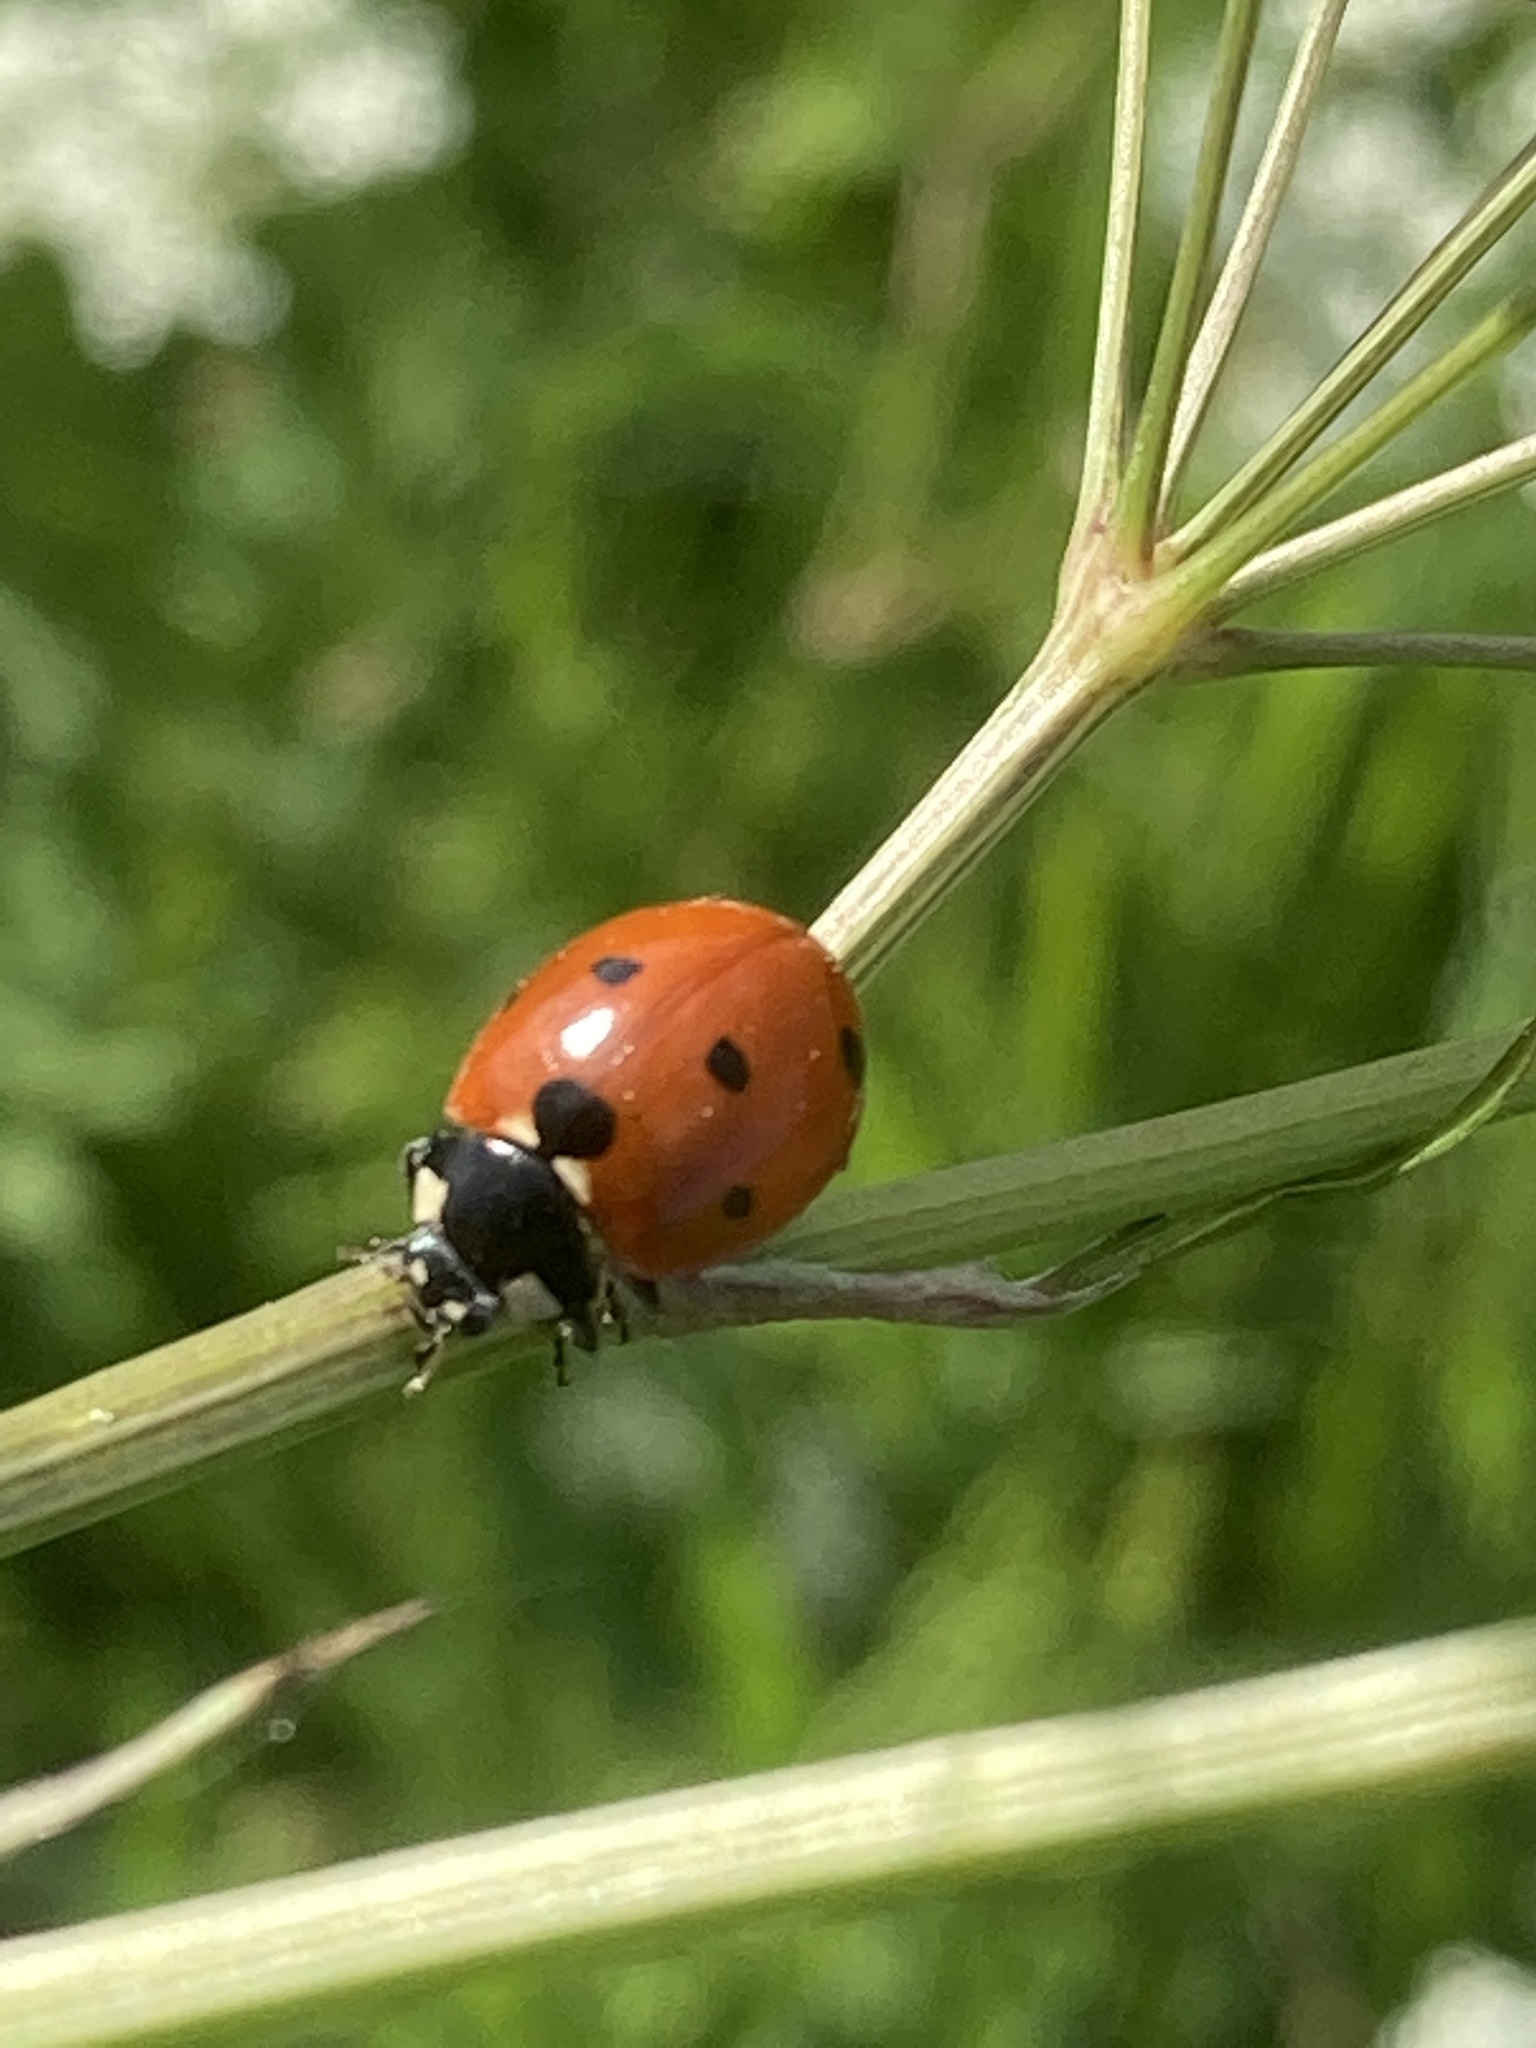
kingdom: Animalia
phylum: Arthropoda
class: Insecta
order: Coleoptera
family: Coccinellidae
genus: Coccinella
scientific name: Coccinella septempunctata
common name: Sevenspotted lady beetle
